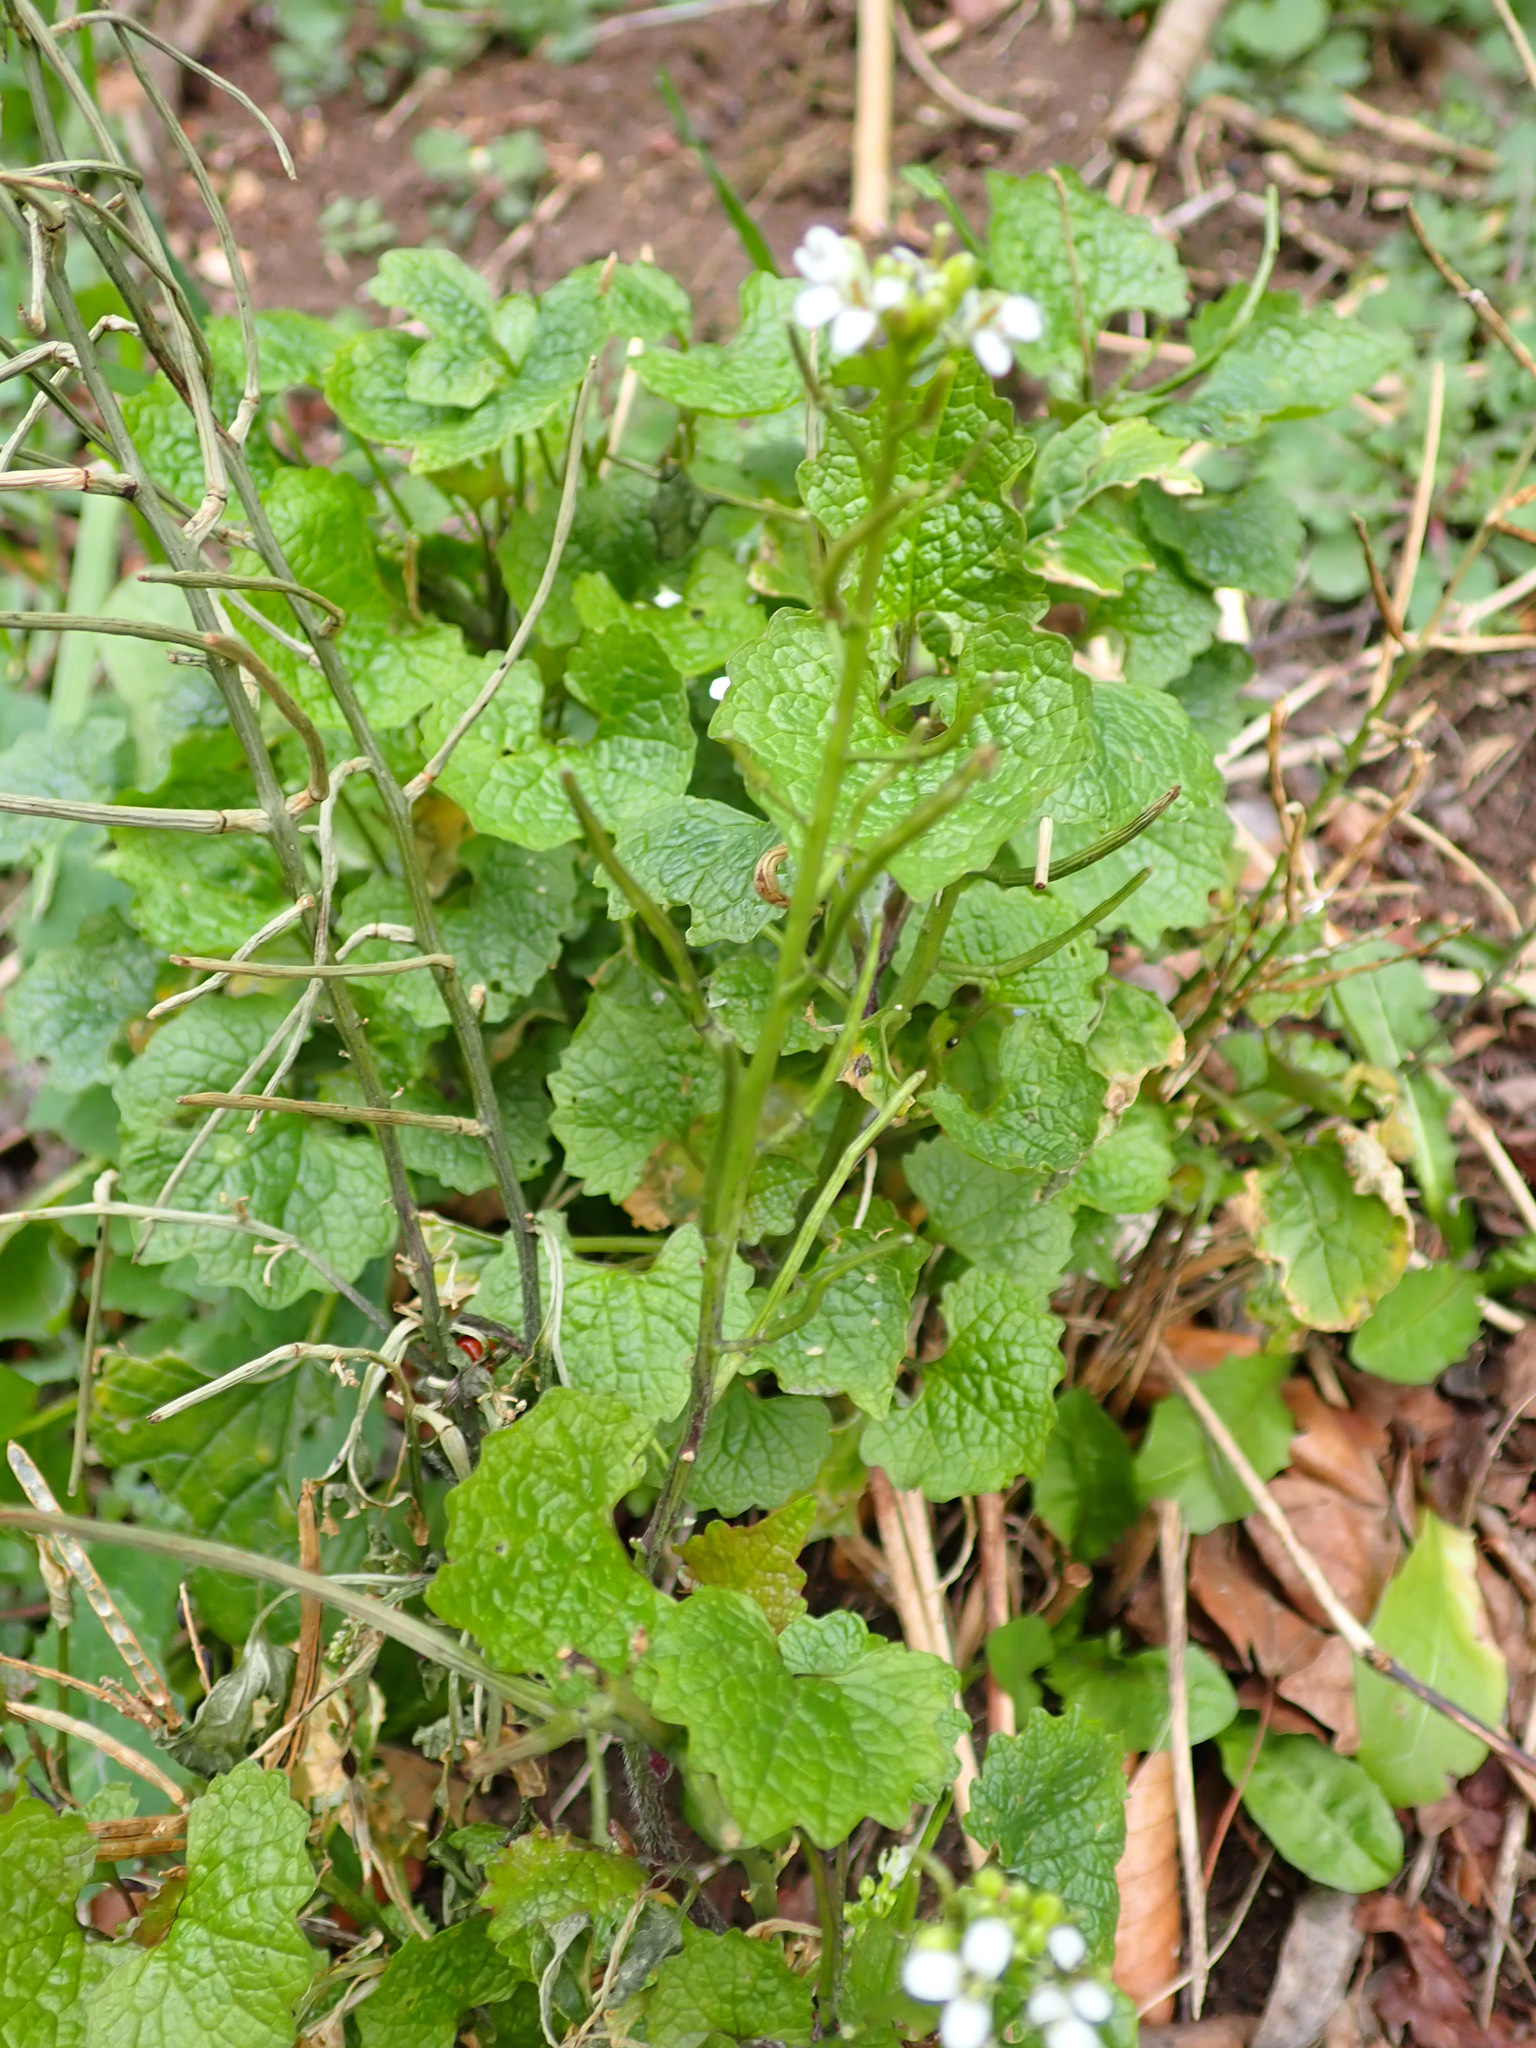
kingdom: Plantae
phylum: Tracheophyta
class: Magnoliopsida
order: Brassicales
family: Brassicaceae
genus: Alliaria
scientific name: Alliaria petiolata
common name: Garlic mustard
